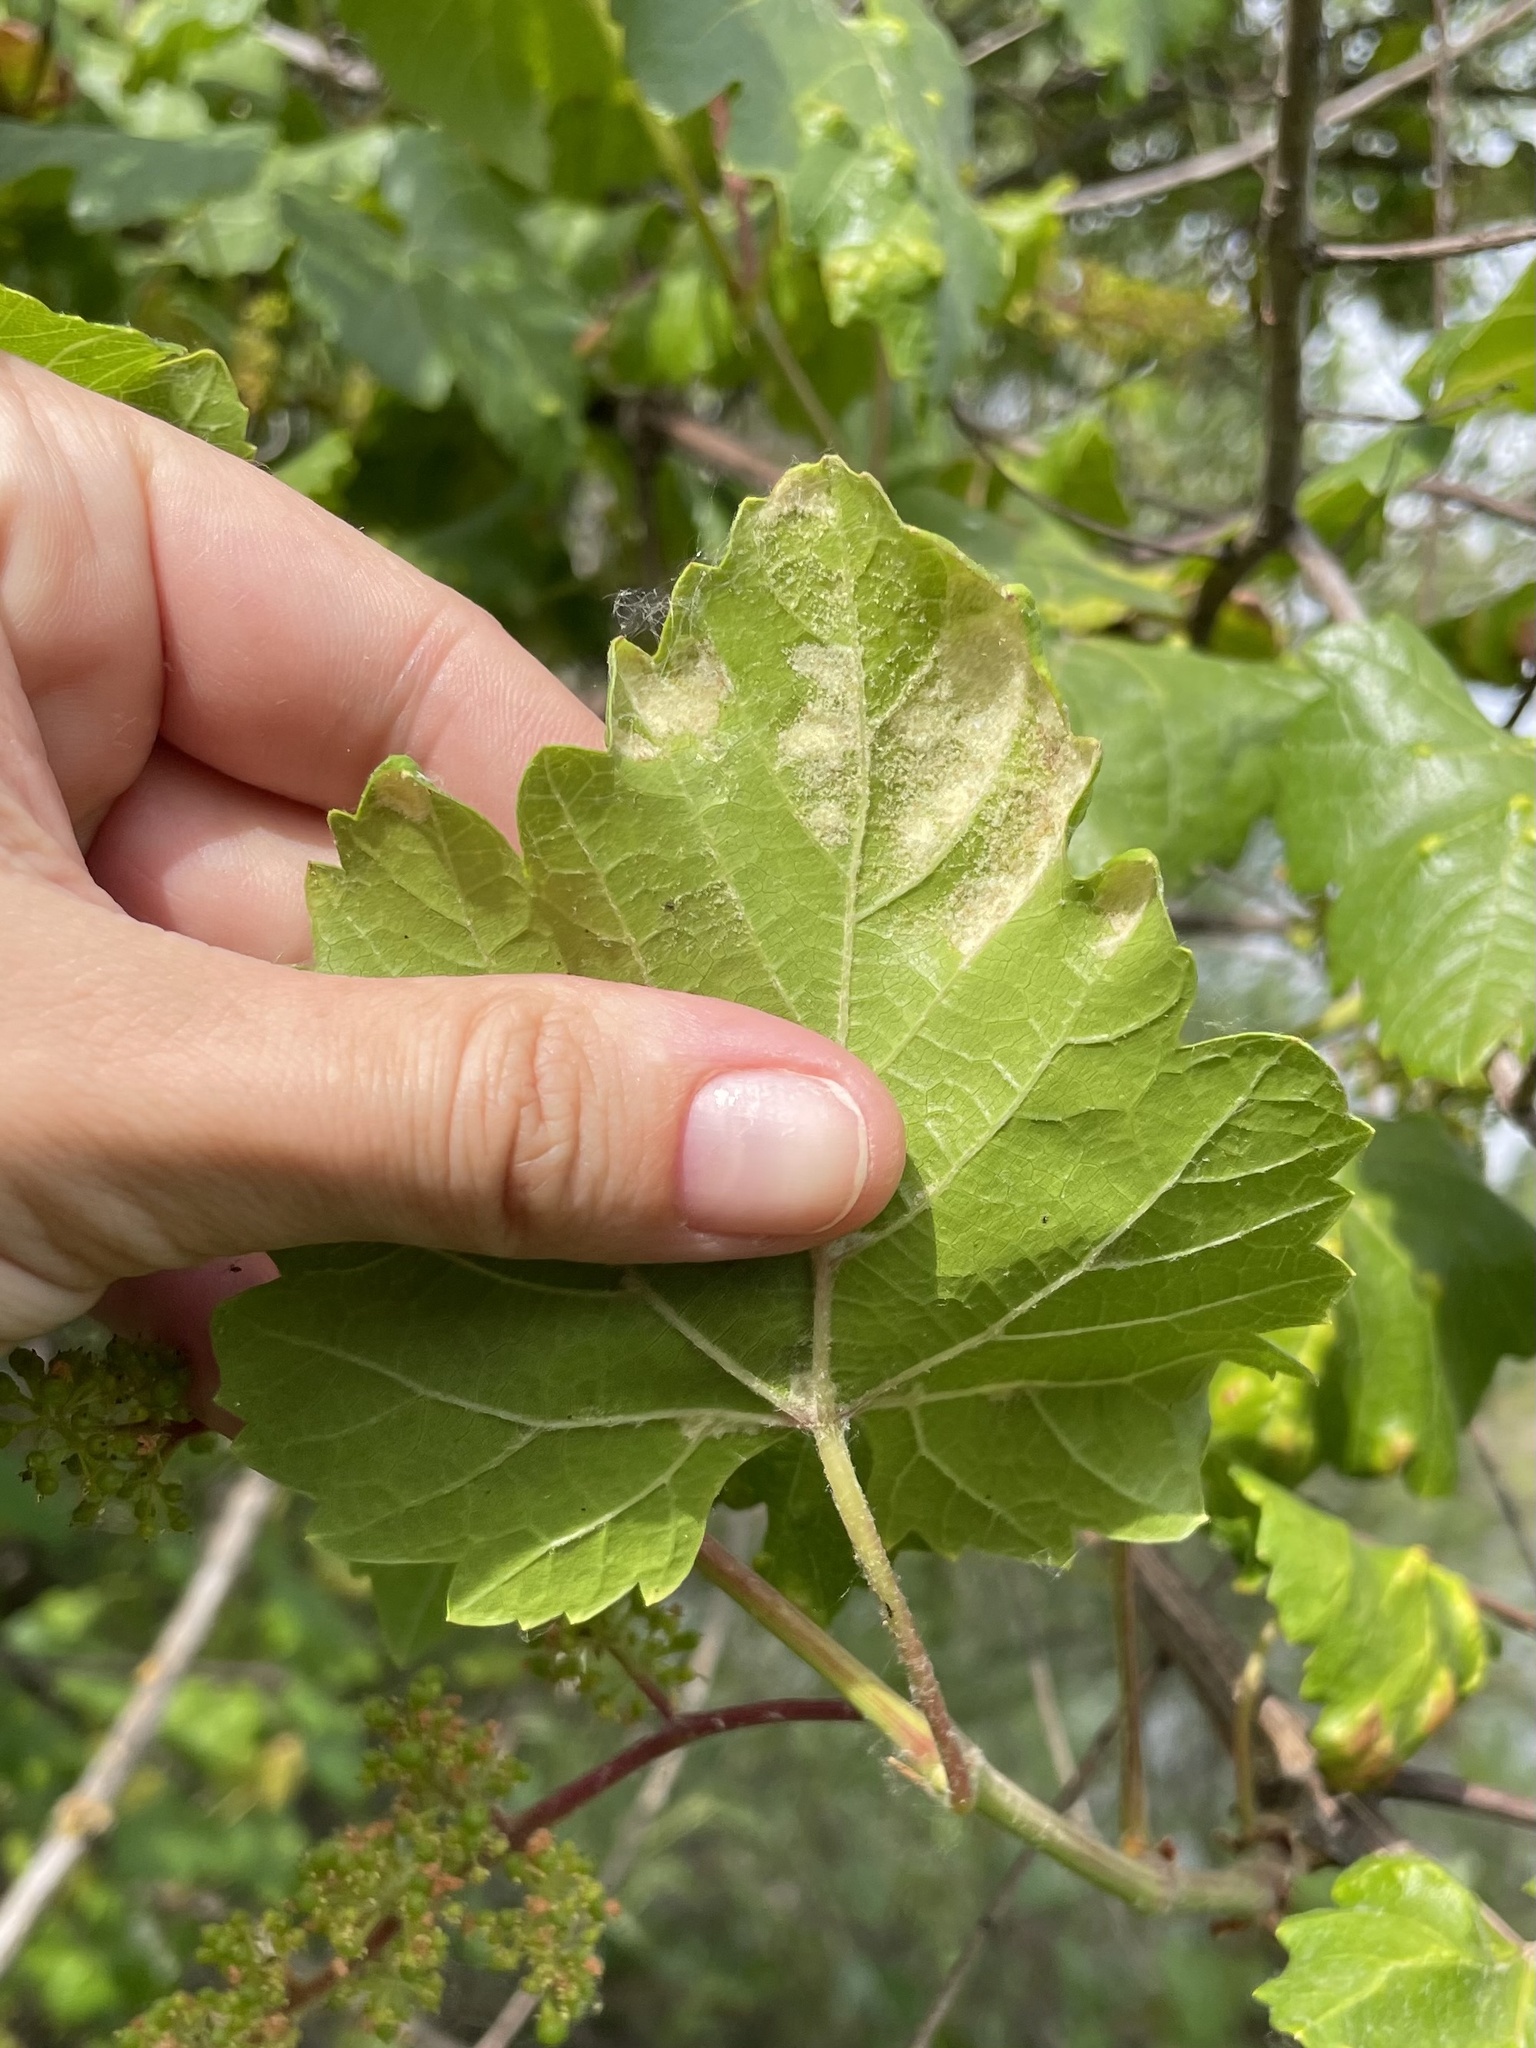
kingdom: Animalia
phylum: Arthropoda
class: Arachnida
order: Trombidiformes
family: Eriophyidae
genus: Colomerus
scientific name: Colomerus vitis
